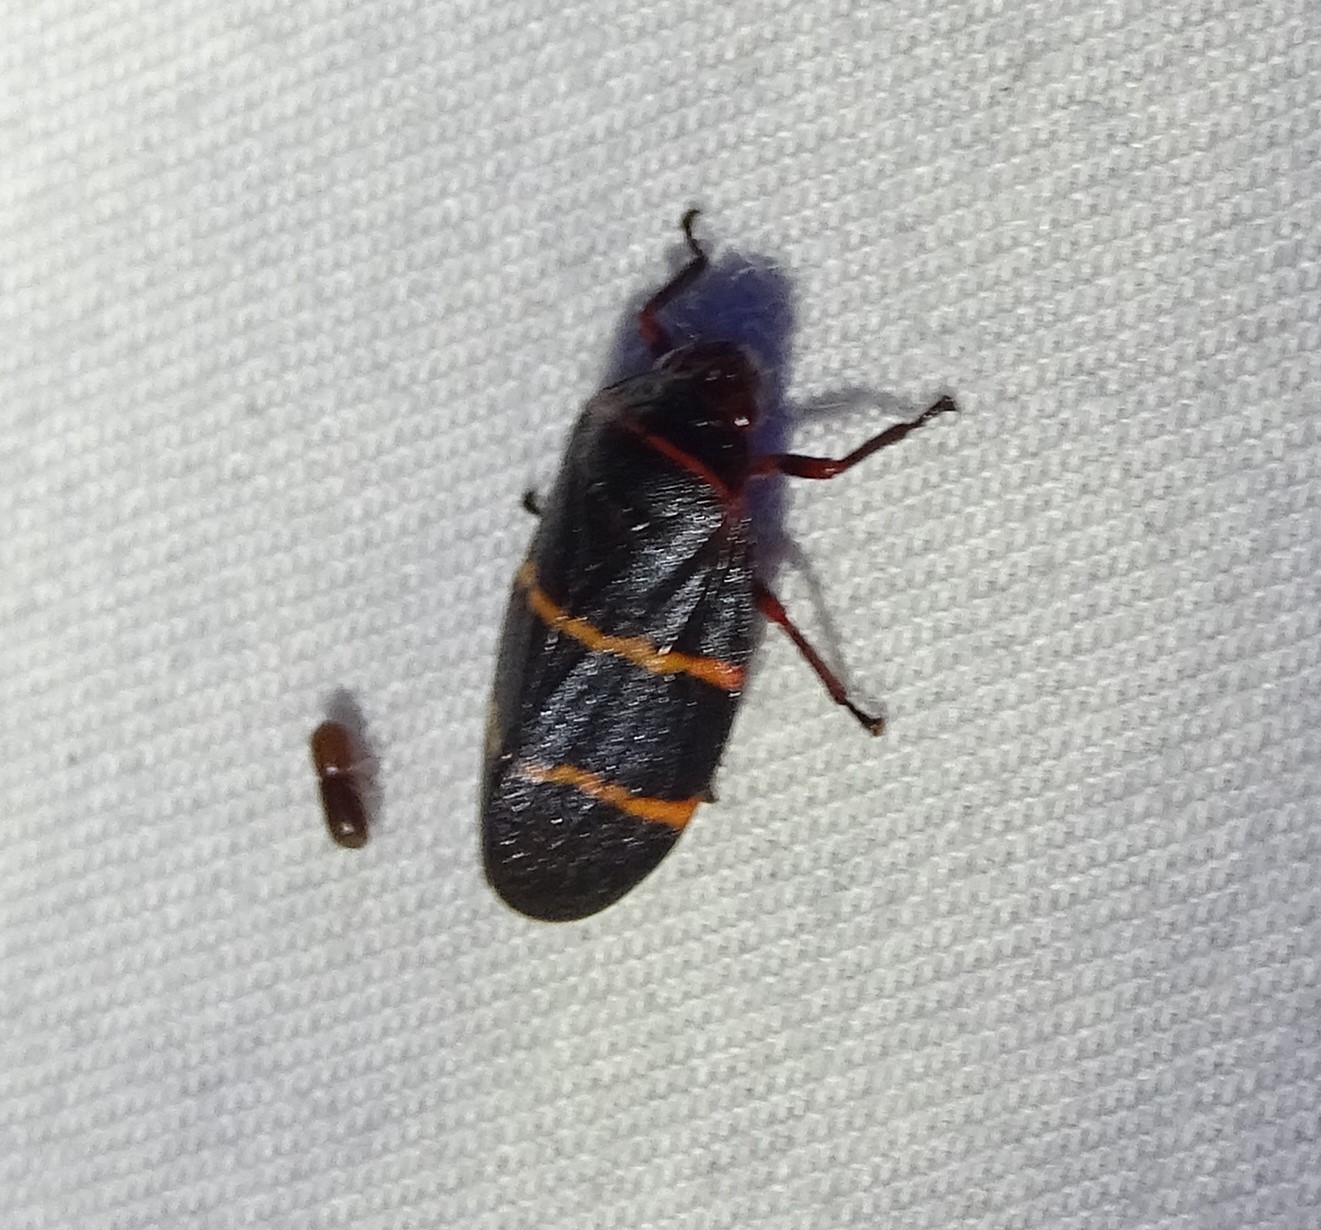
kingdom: Animalia
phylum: Arthropoda
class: Insecta
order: Hemiptera
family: Cercopidae
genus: Prosapia
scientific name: Prosapia bicincta
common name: Twolined spittlebug
